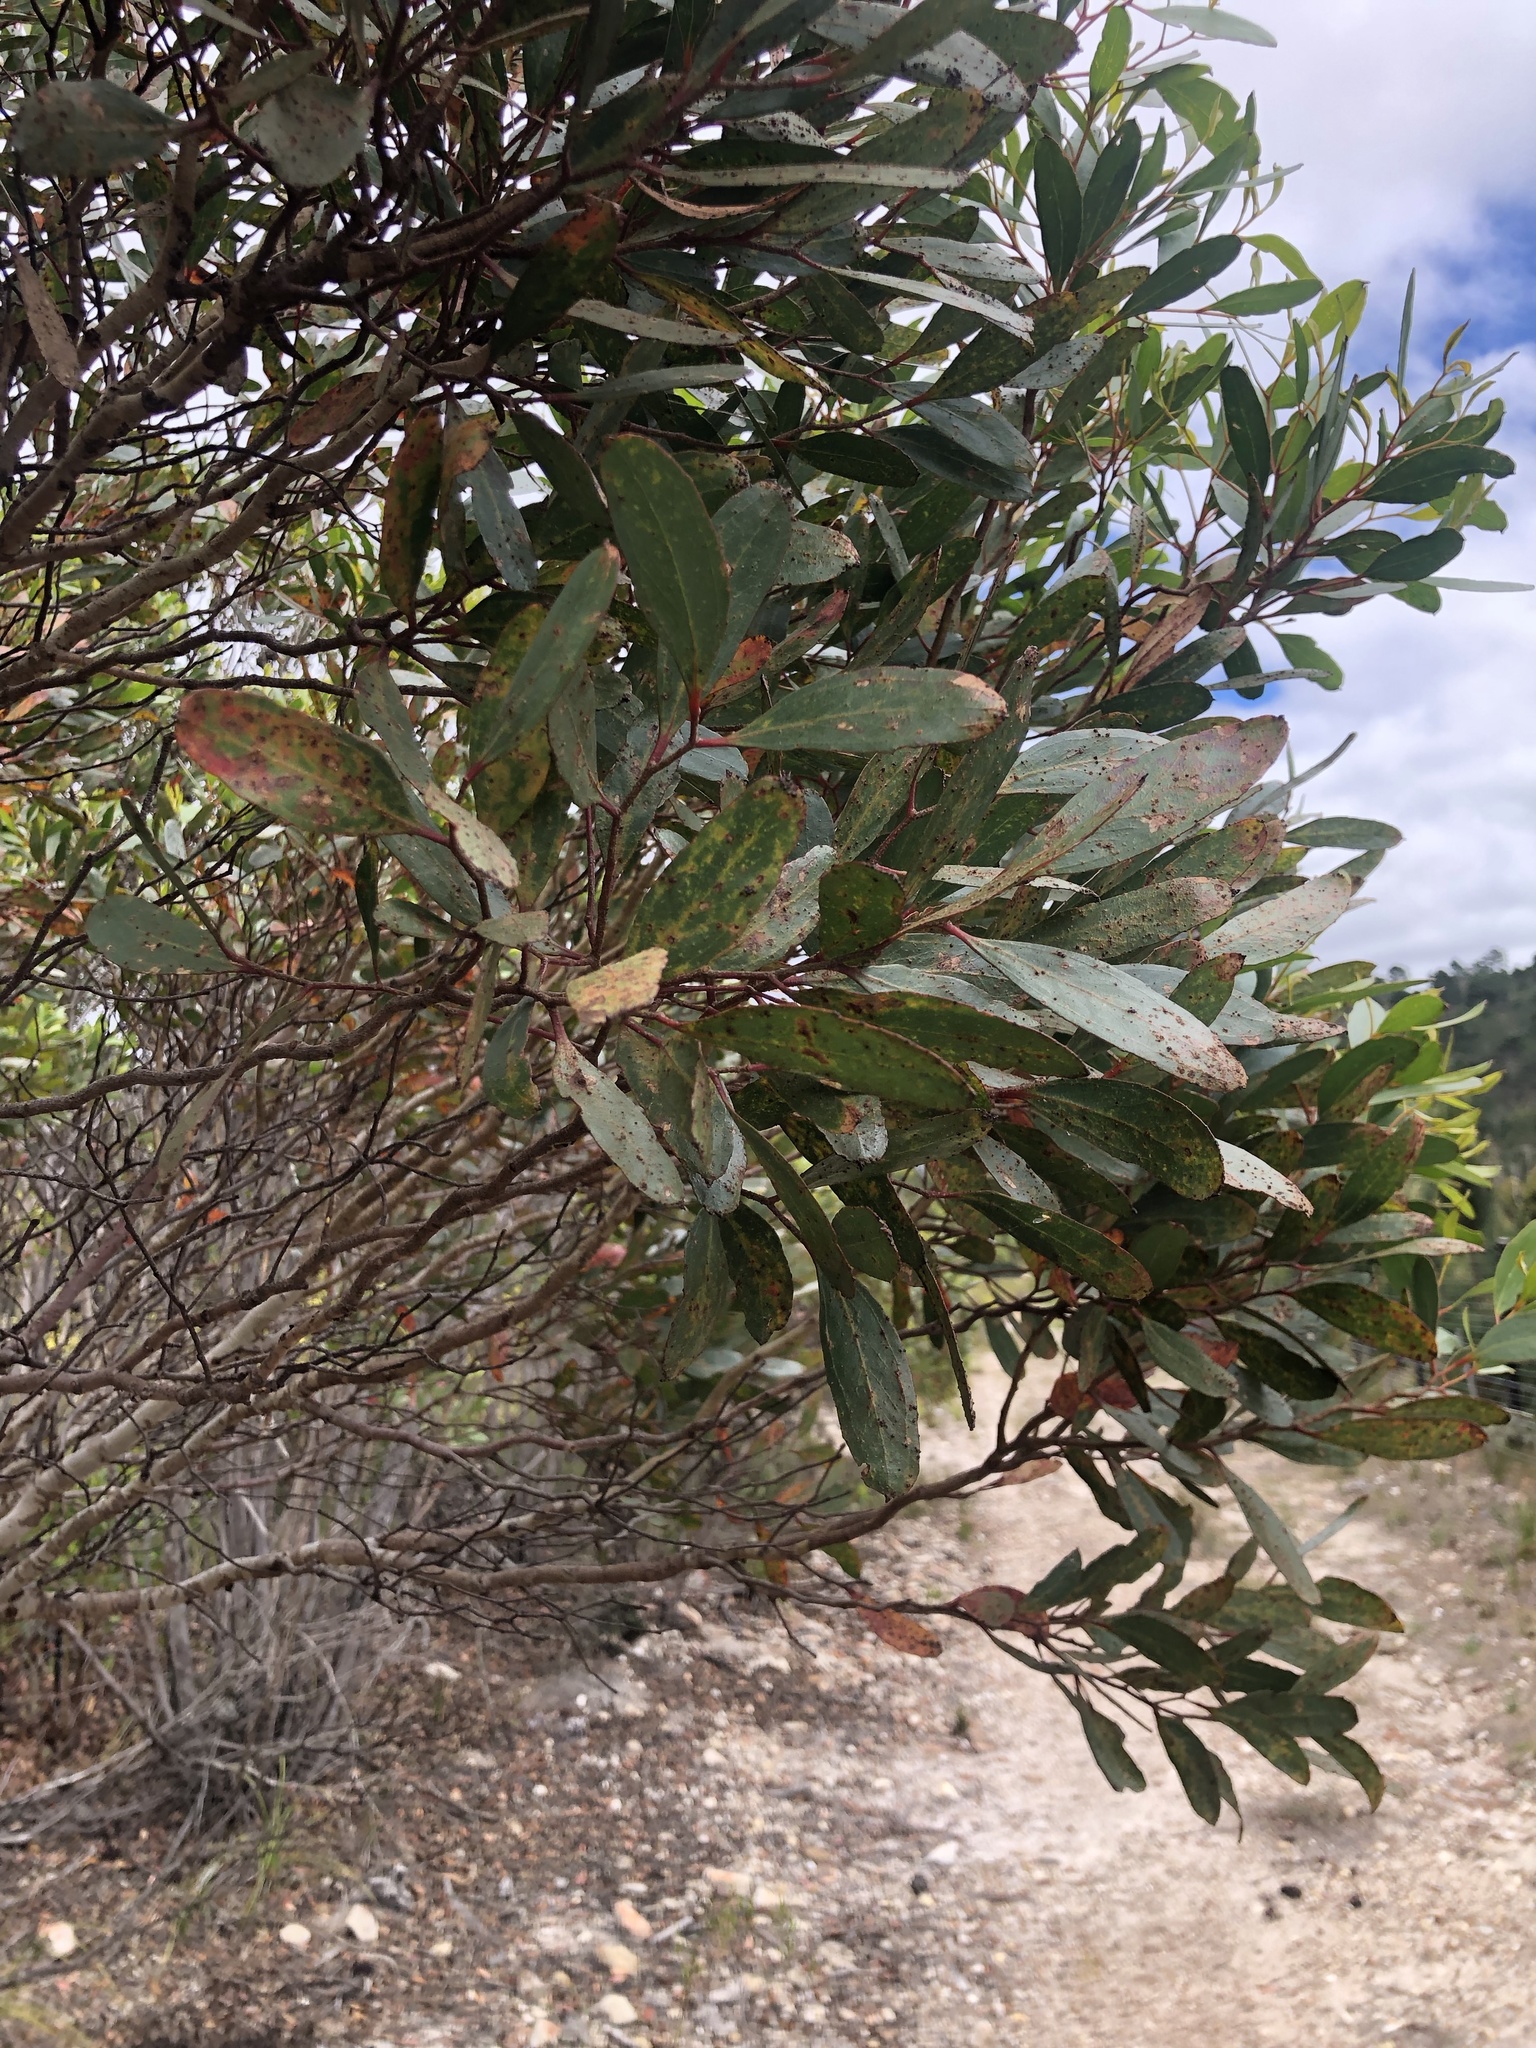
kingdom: Plantae
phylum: Tracheophyta
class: Magnoliopsida
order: Myrtales
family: Myrtaceae
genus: Eucalyptus
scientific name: Eucalyptus conferruminata
